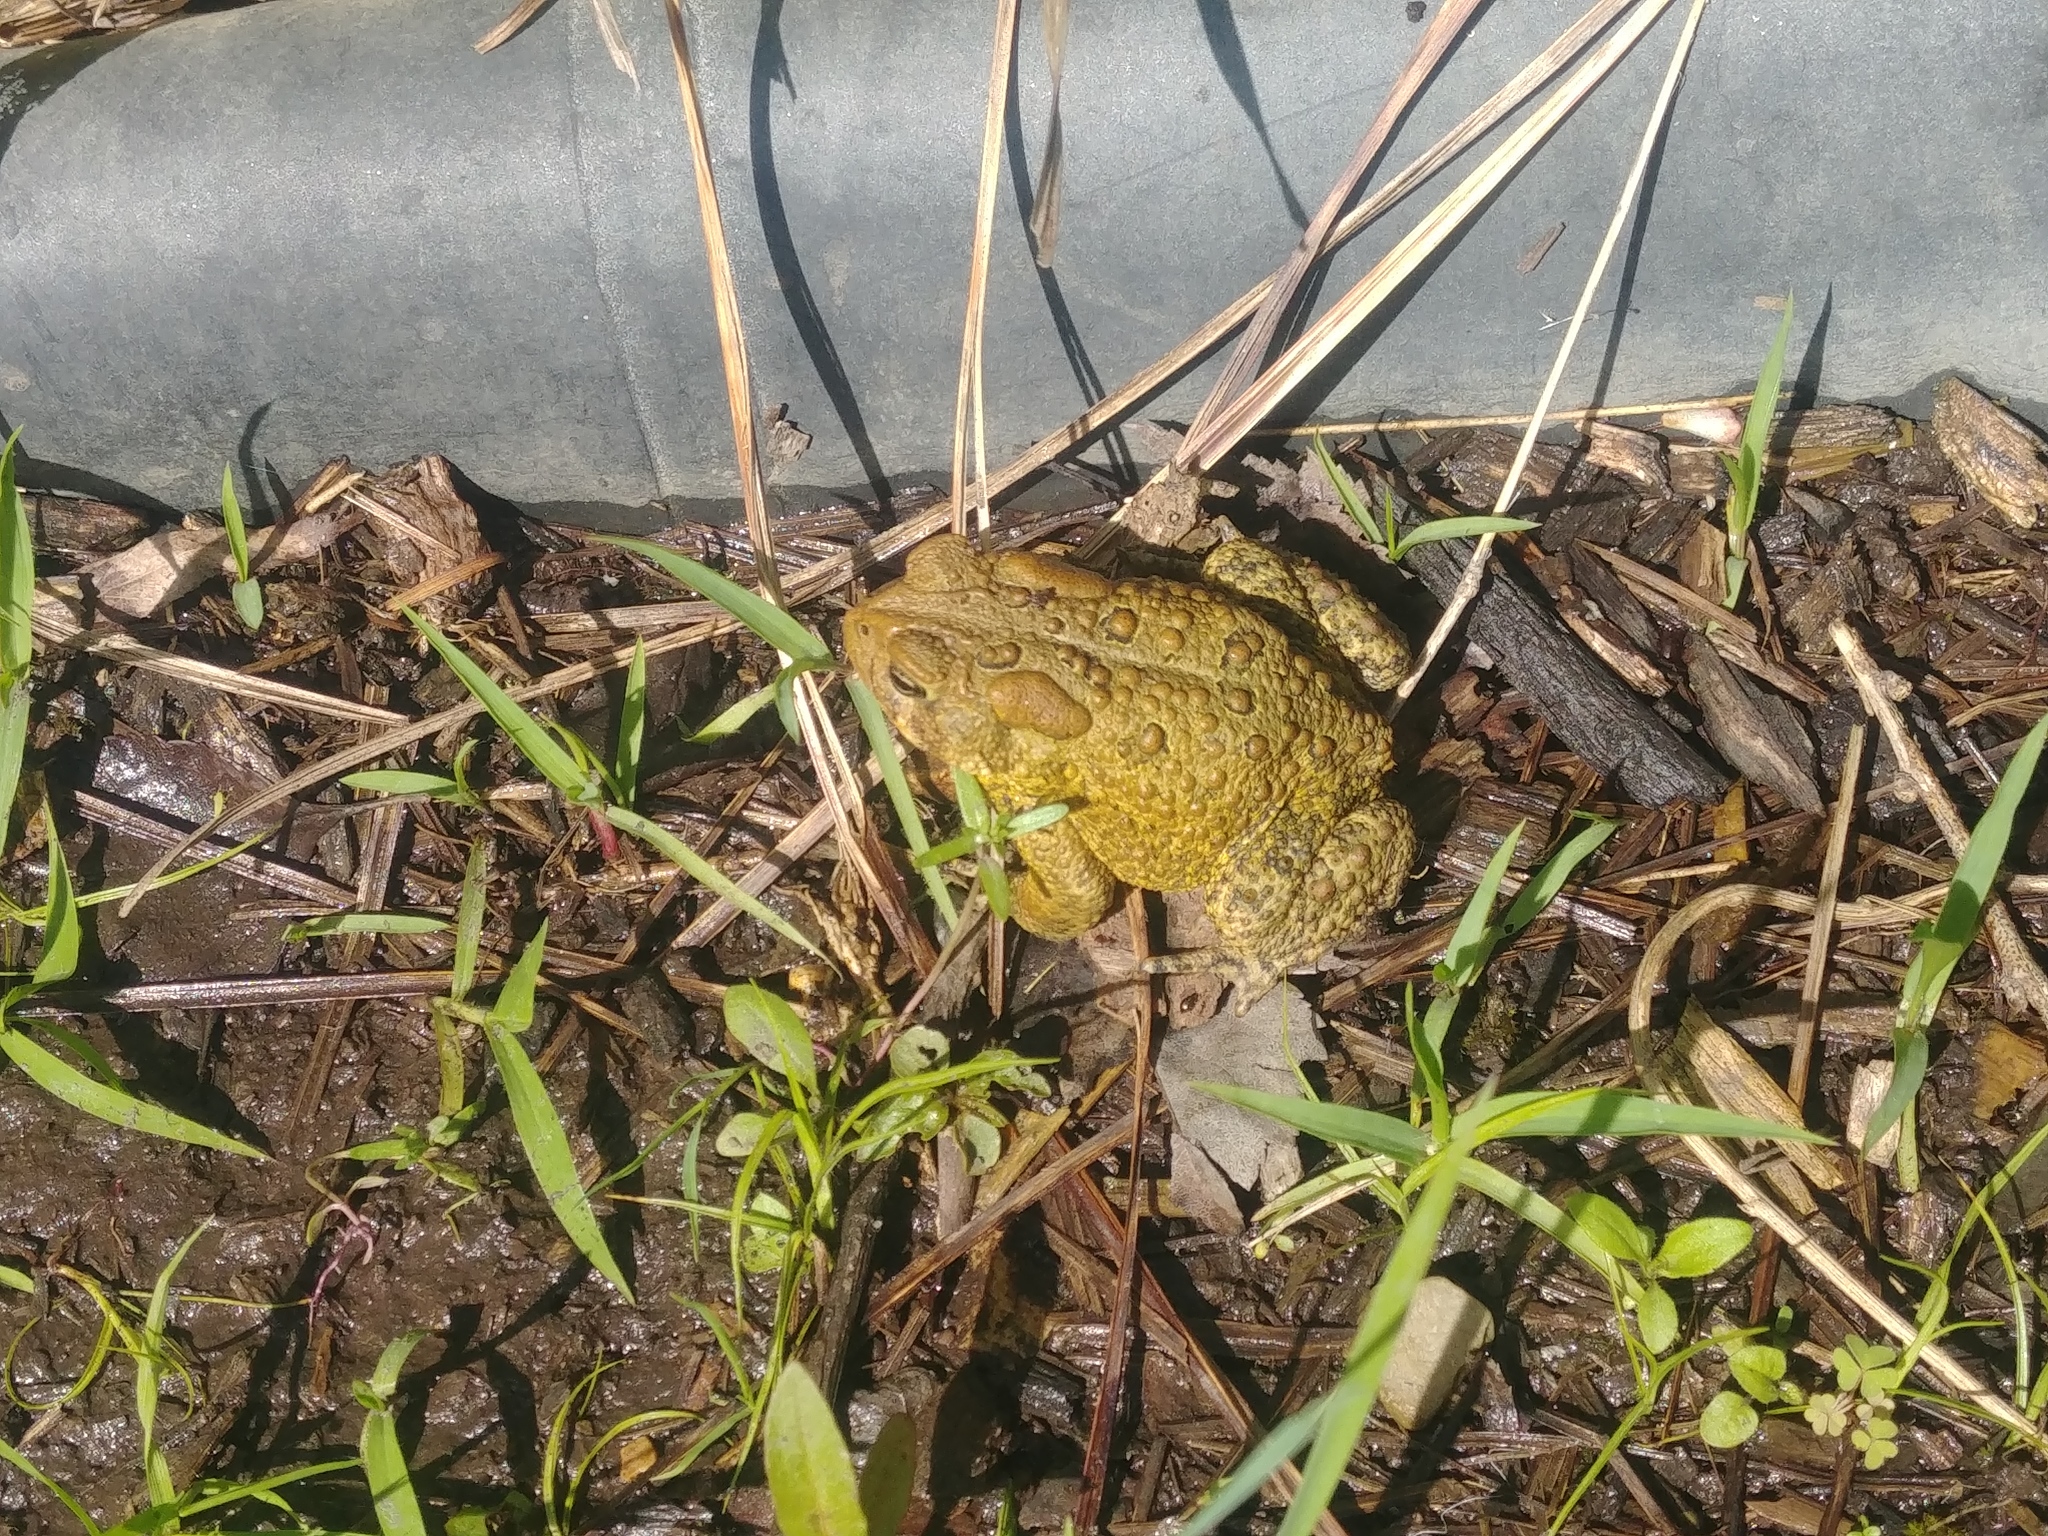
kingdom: Animalia
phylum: Chordata
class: Amphibia
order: Anura
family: Bufonidae
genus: Anaxyrus
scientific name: Anaxyrus americanus
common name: American toad
